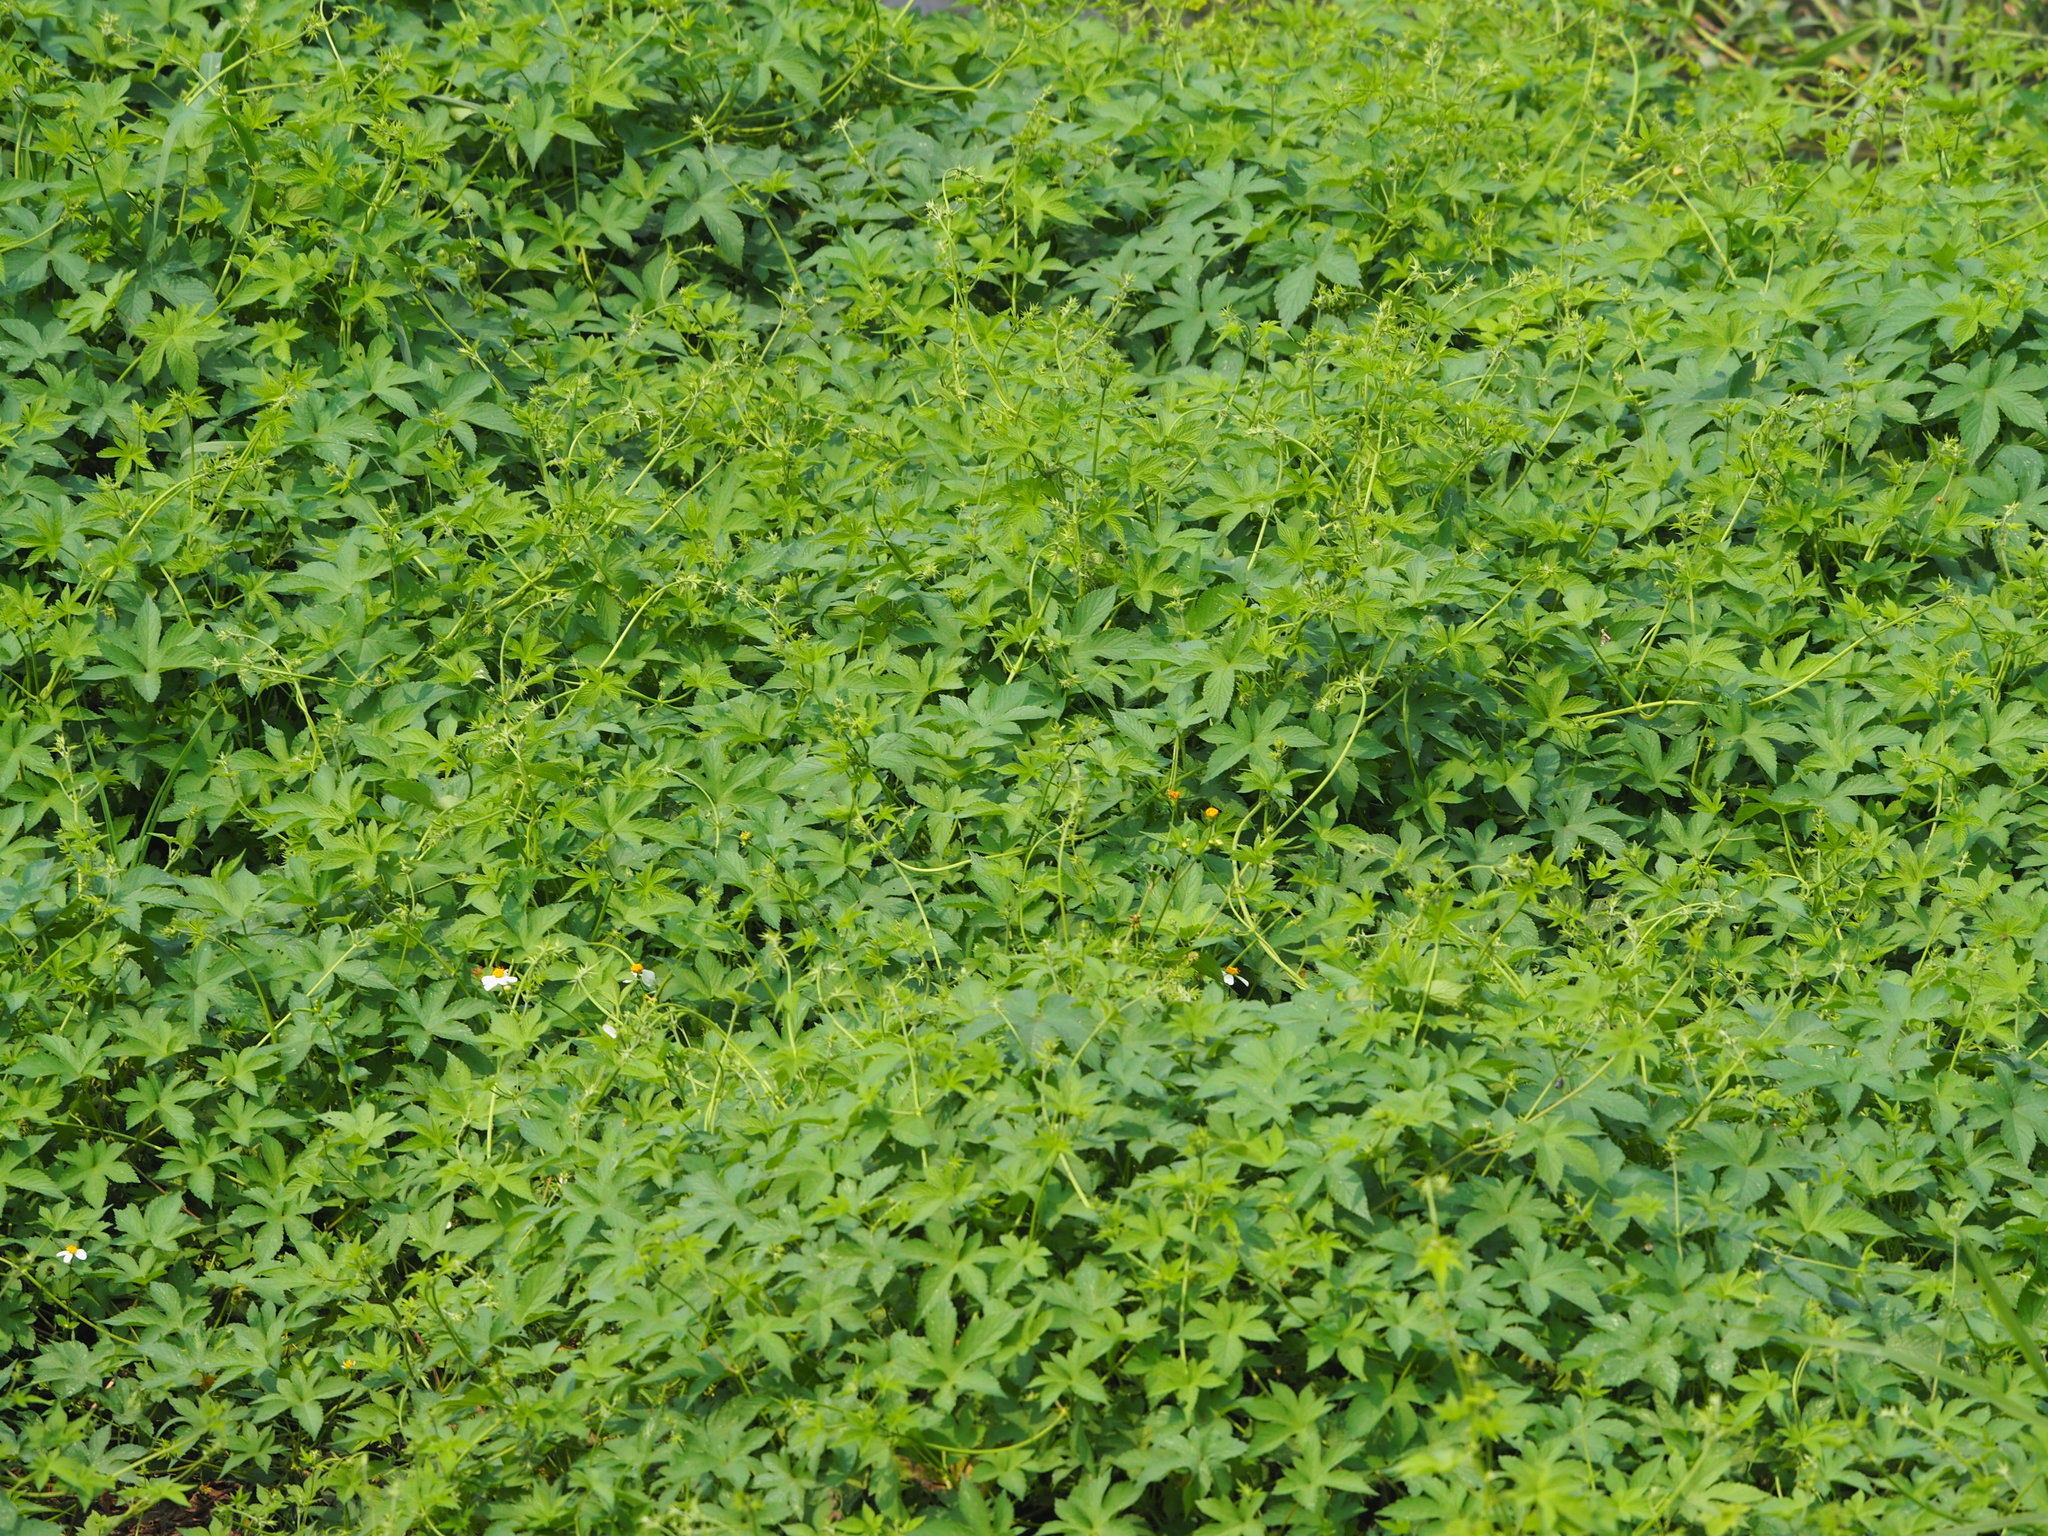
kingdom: Plantae
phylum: Tracheophyta
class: Magnoliopsida
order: Rosales
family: Cannabaceae
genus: Humulus
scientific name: Humulus scandens
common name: Japanese hop
